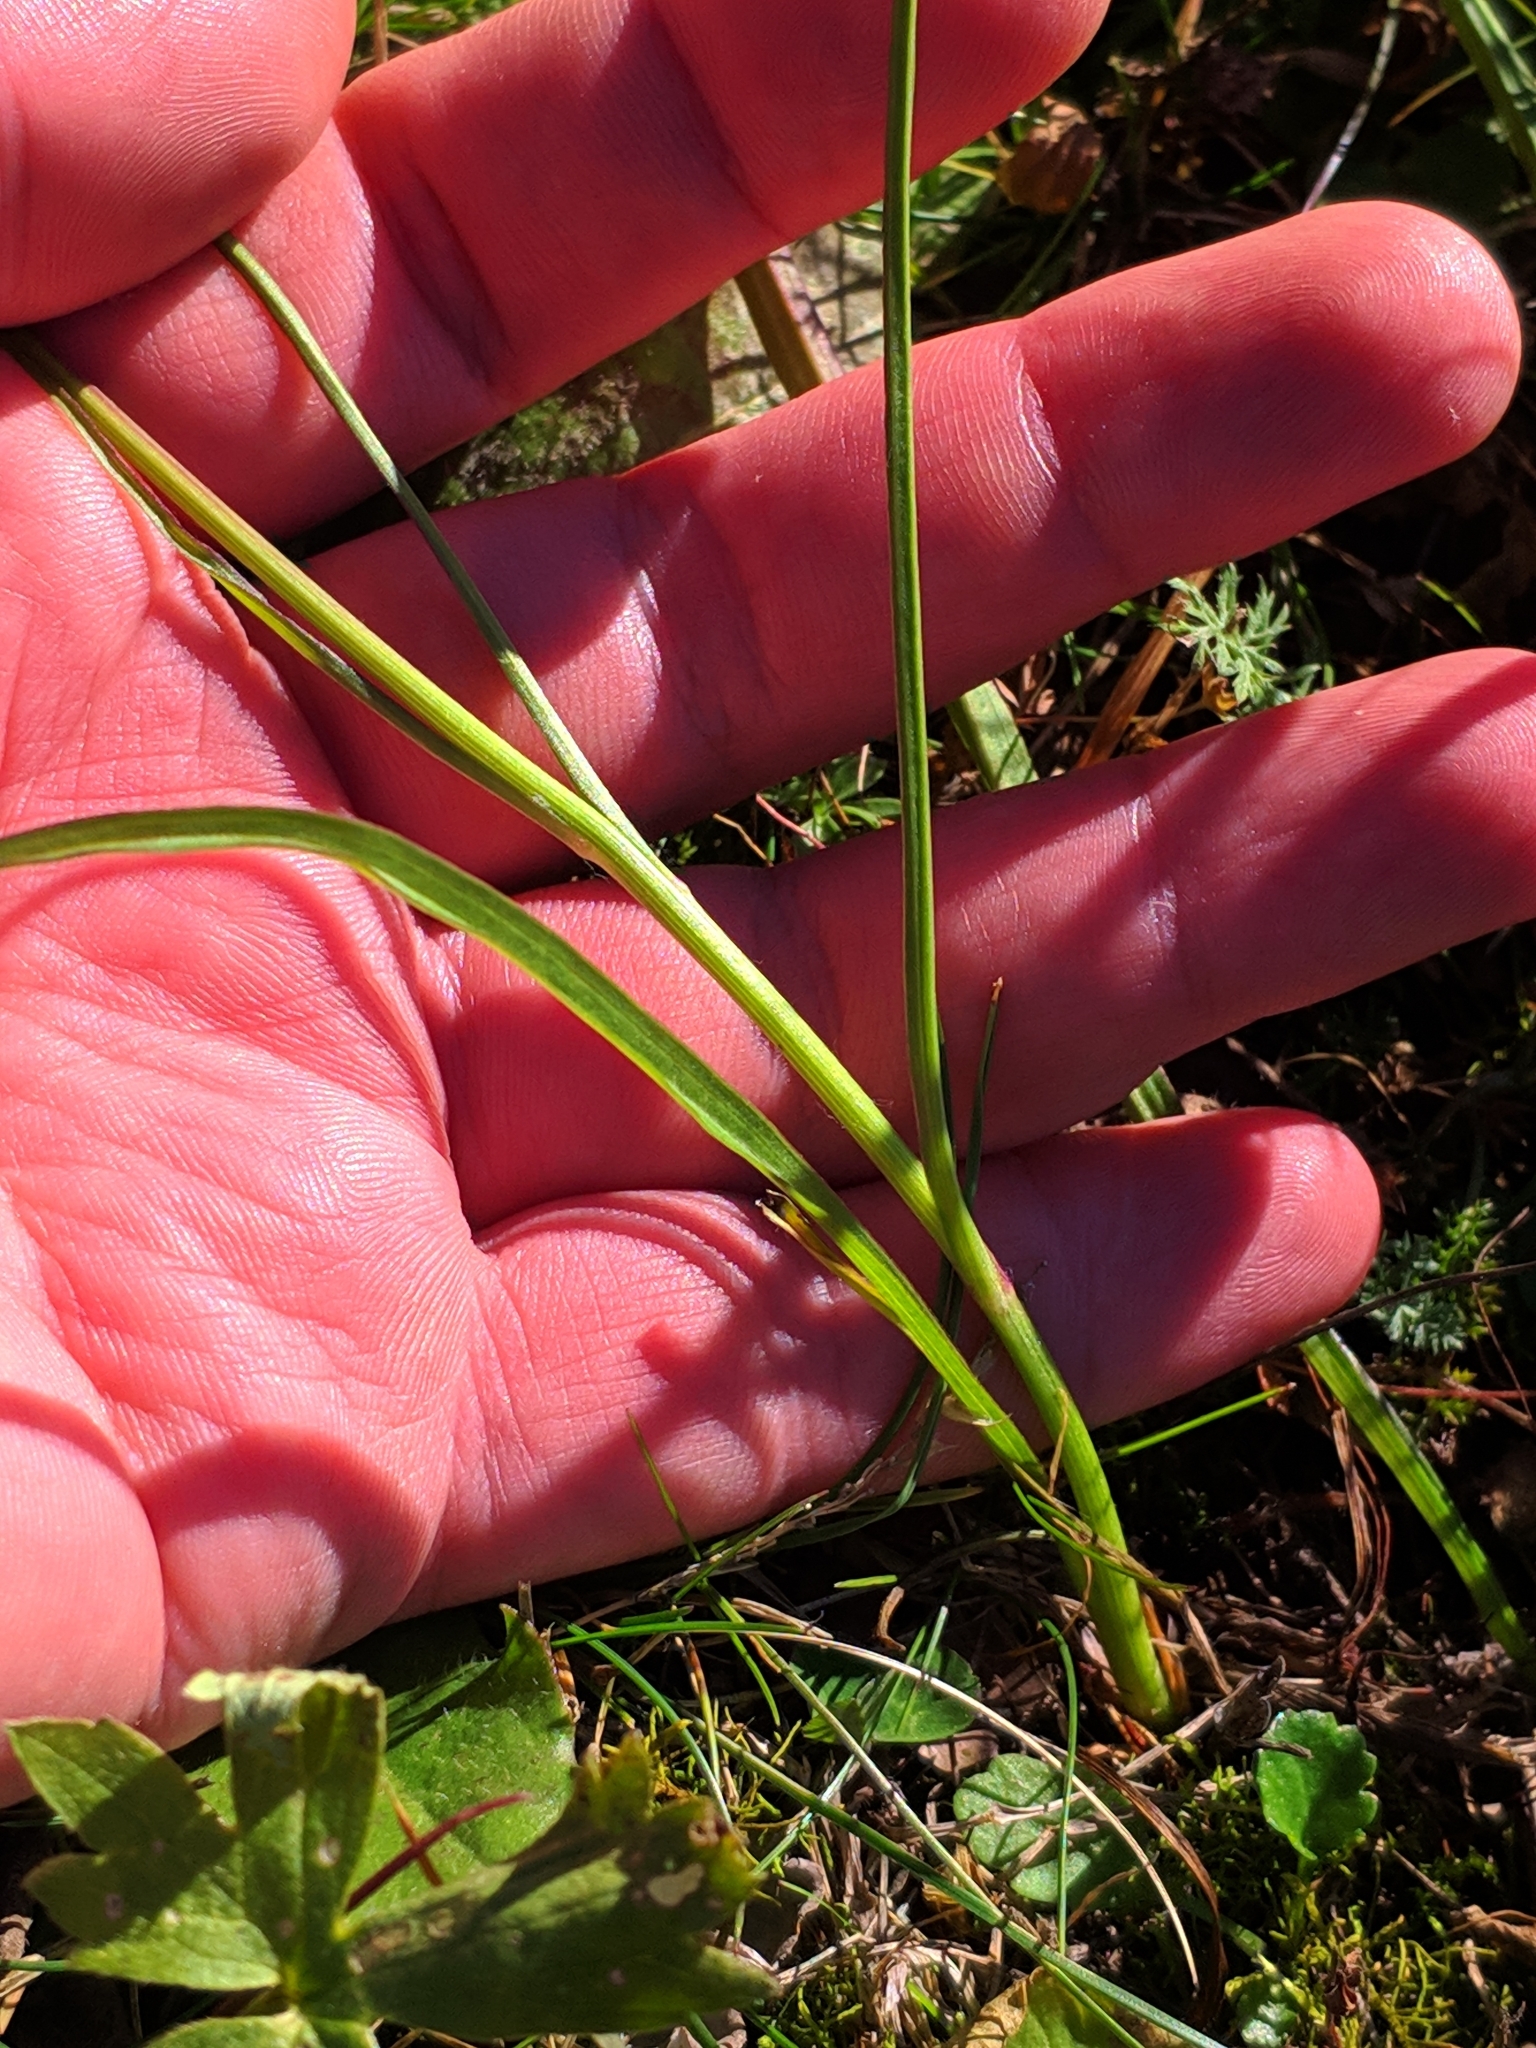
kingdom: Plantae
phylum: Tracheophyta
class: Magnoliopsida
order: Asterales
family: Asteraceae
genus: Scorzonera
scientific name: Scorzonera rosea
